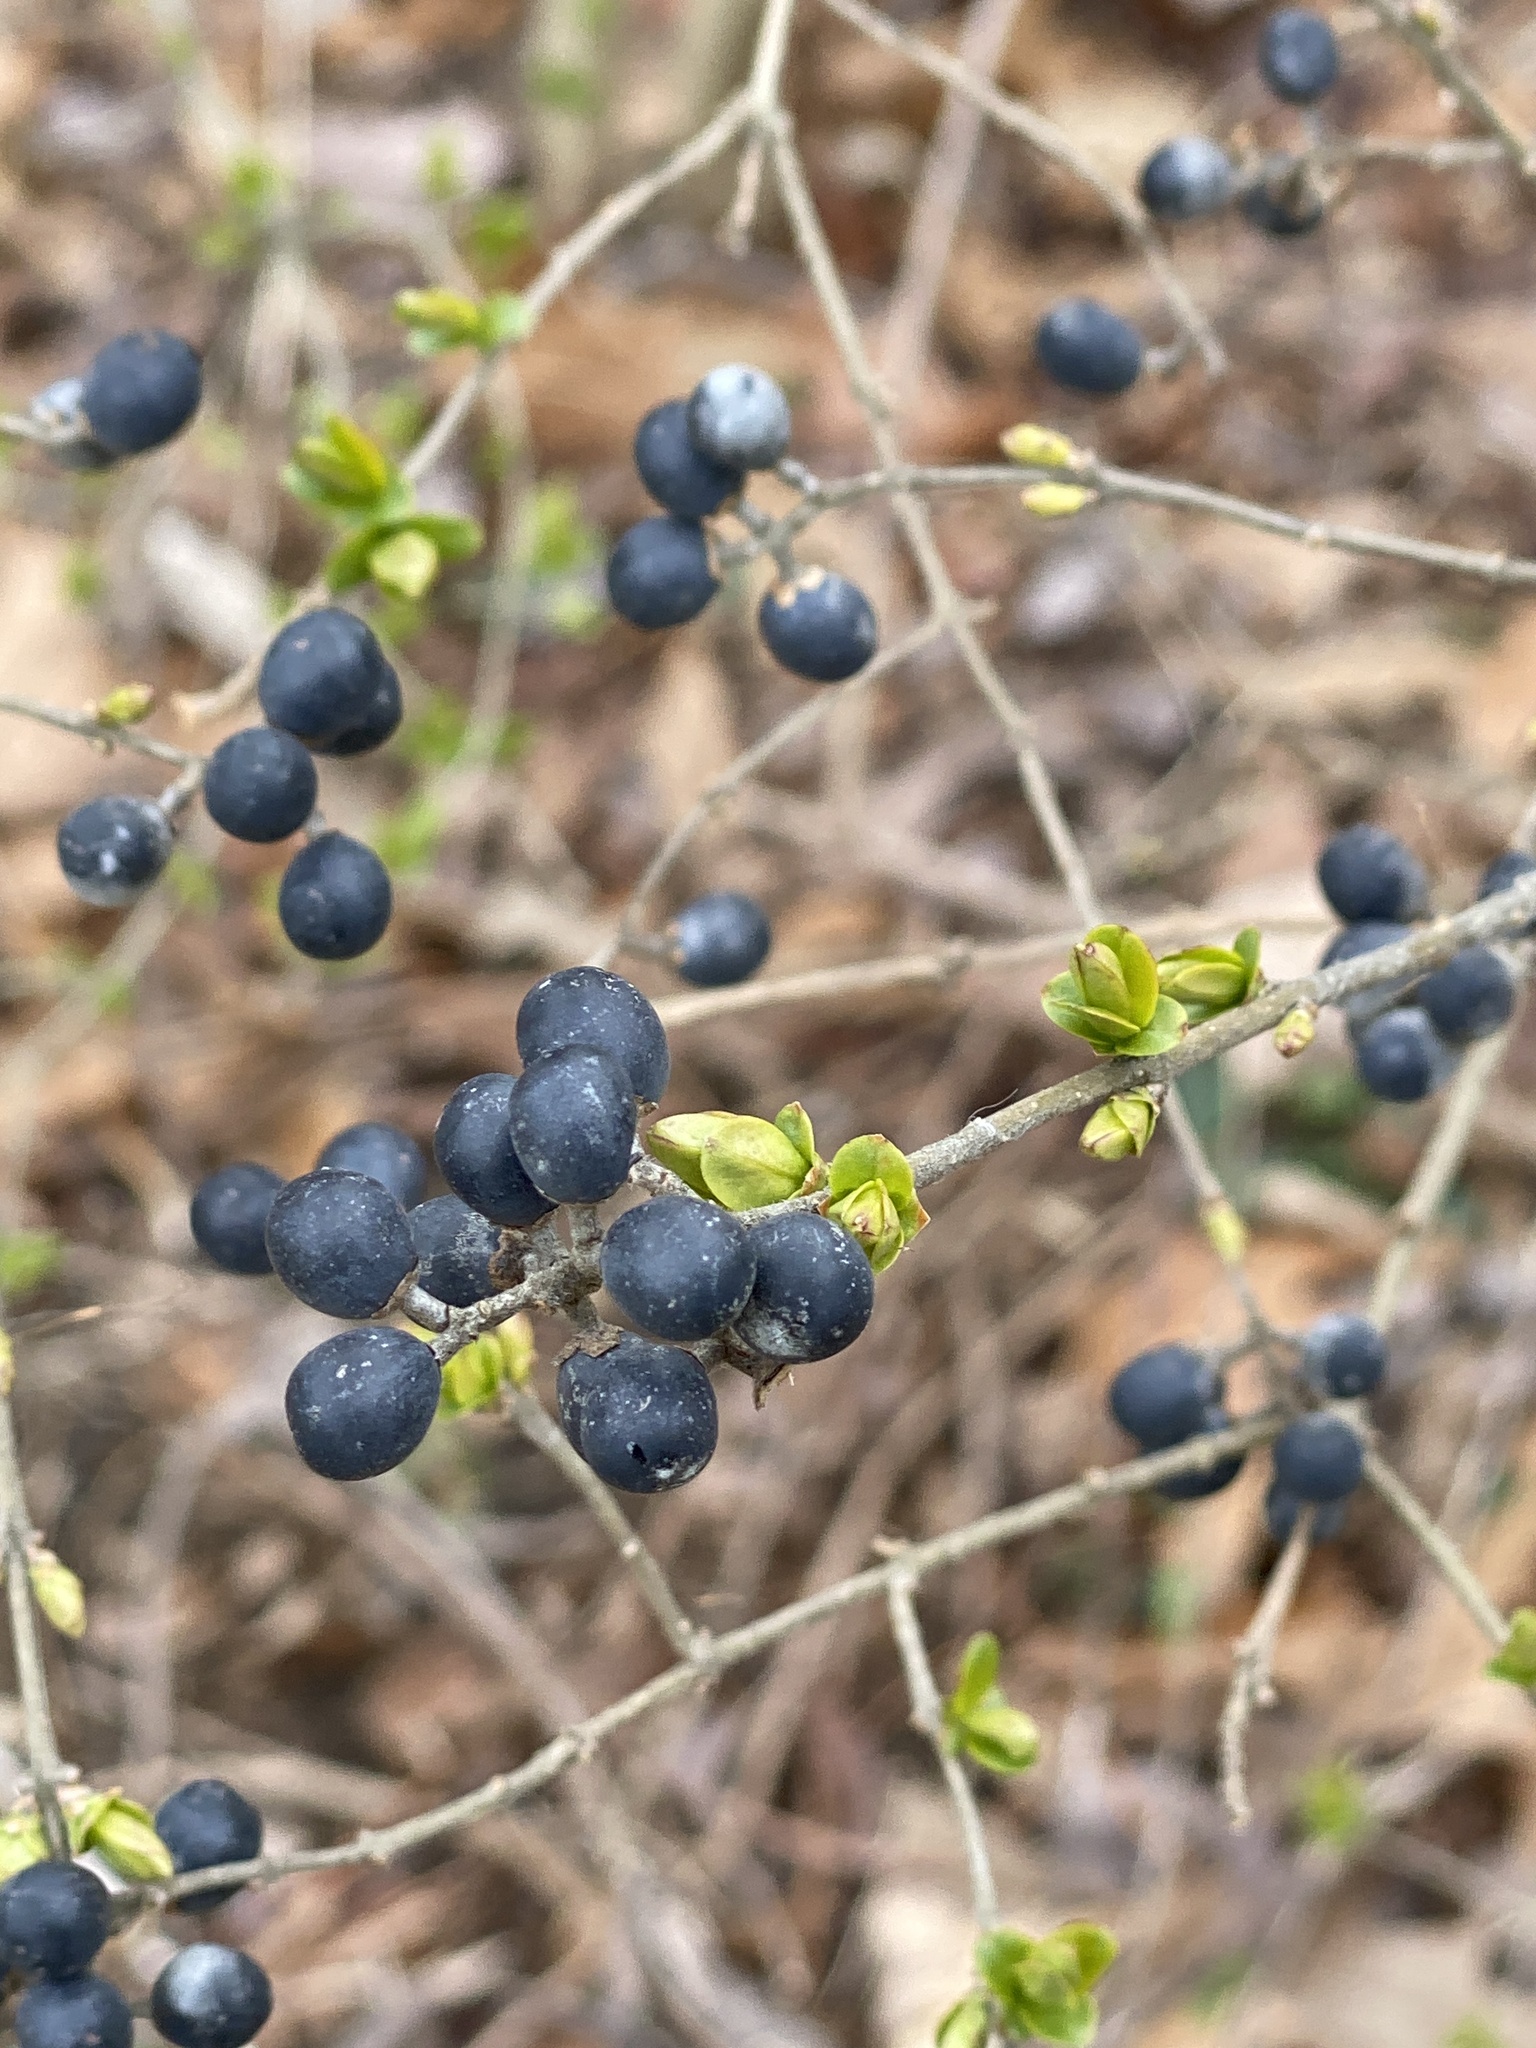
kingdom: Plantae
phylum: Tracheophyta
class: Magnoliopsida
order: Lamiales
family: Oleaceae
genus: Ligustrum
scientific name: Ligustrum obtusifolium
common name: Border privet
